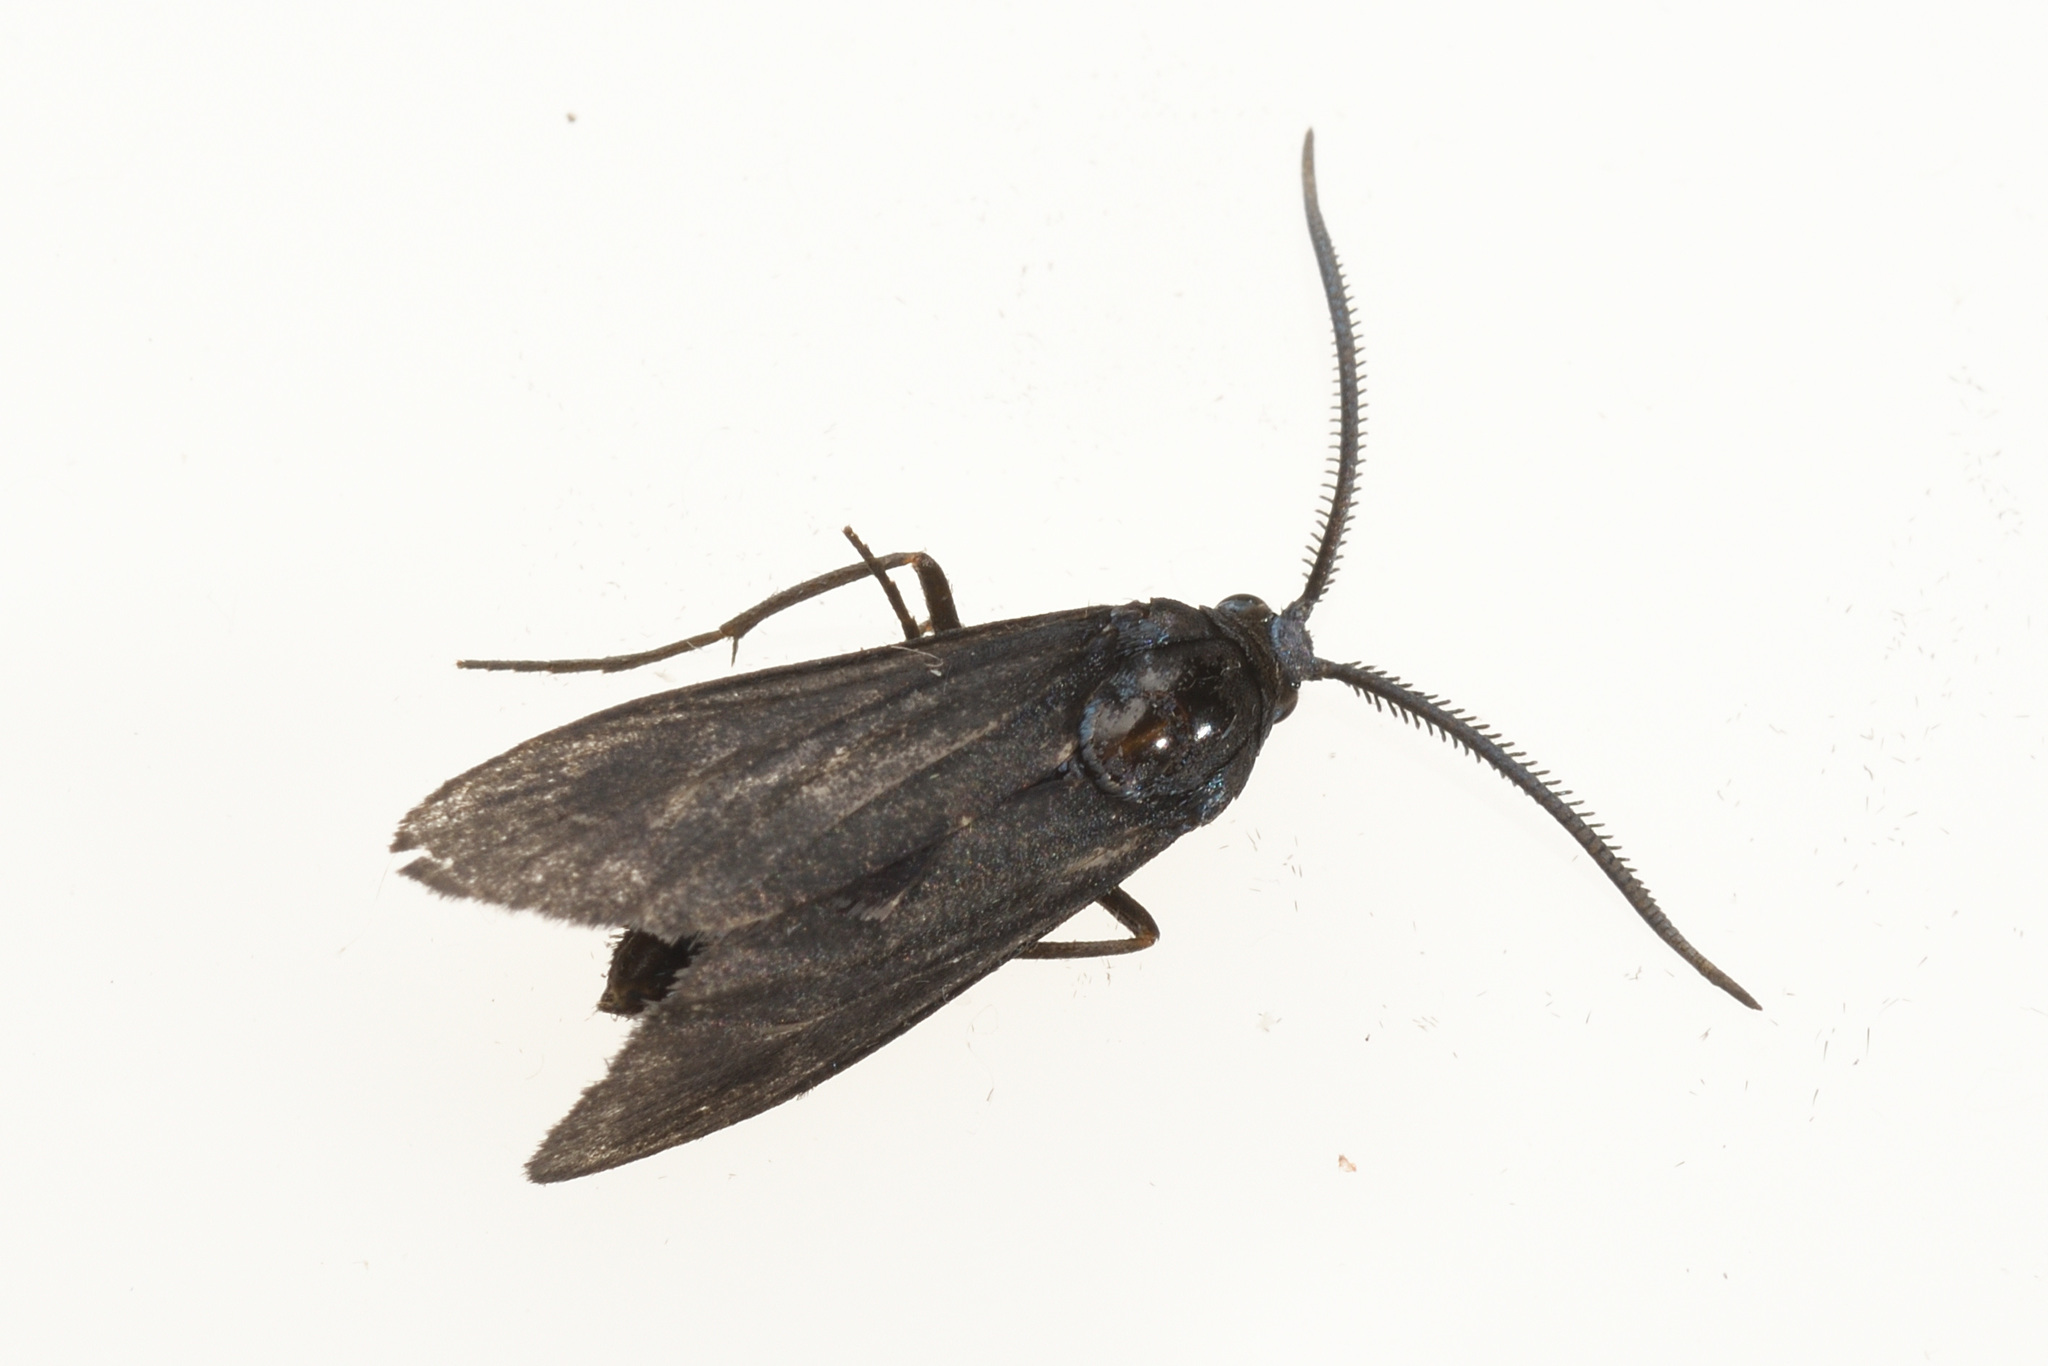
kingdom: Animalia
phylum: Arthropoda
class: Insecta
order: Lepidoptera
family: Zygaenidae
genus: Artona
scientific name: Artona martini
